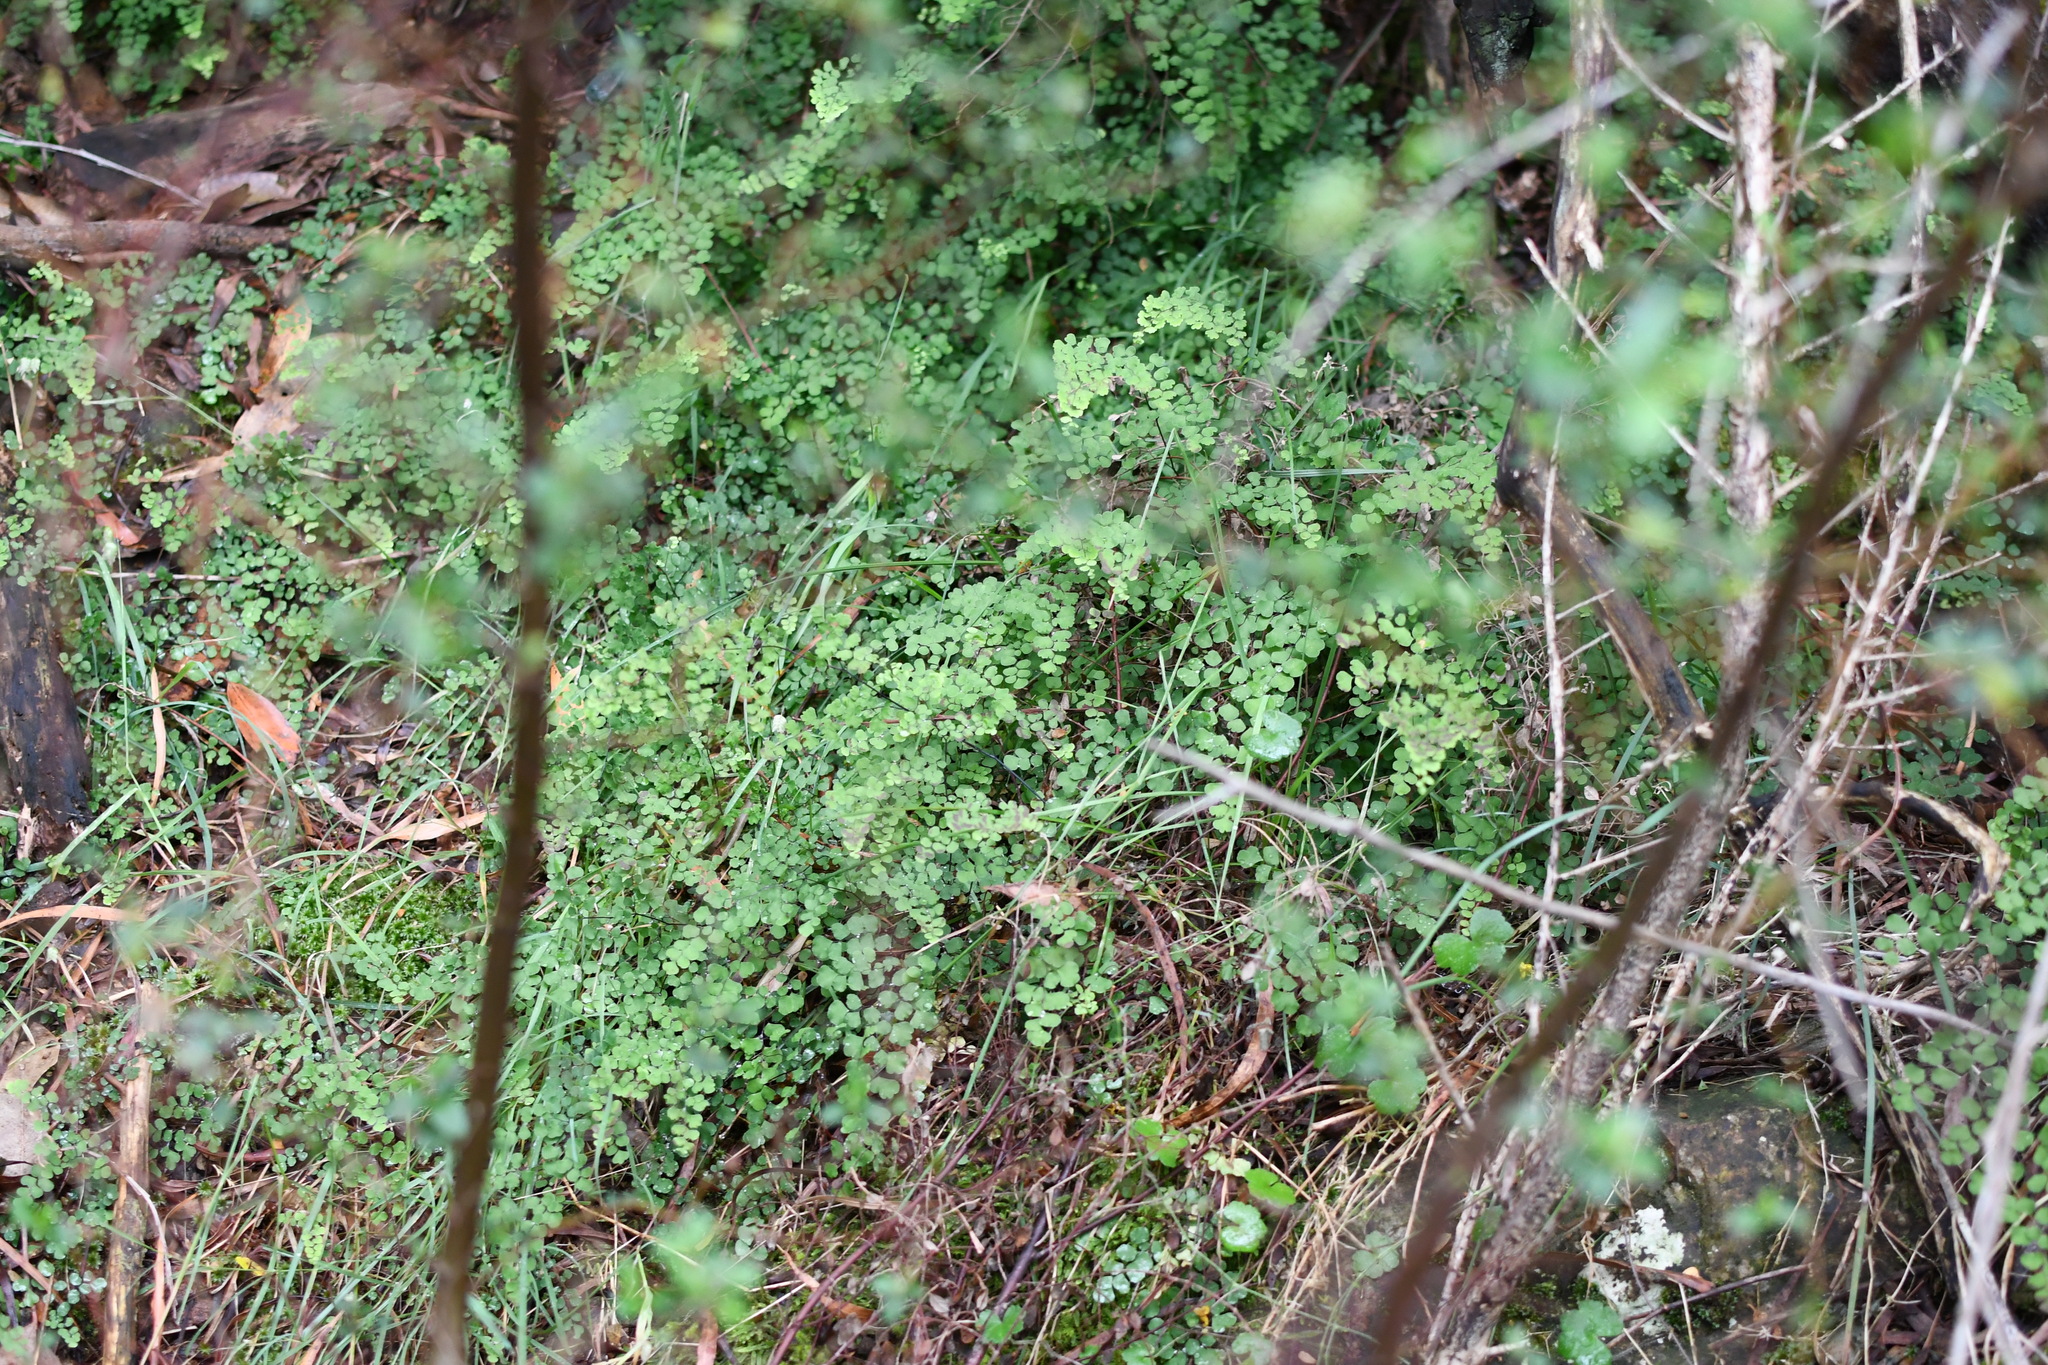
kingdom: Plantae
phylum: Tracheophyta
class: Polypodiopsida
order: Polypodiales
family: Pteridaceae
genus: Adiantum
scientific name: Adiantum aethiopicum
